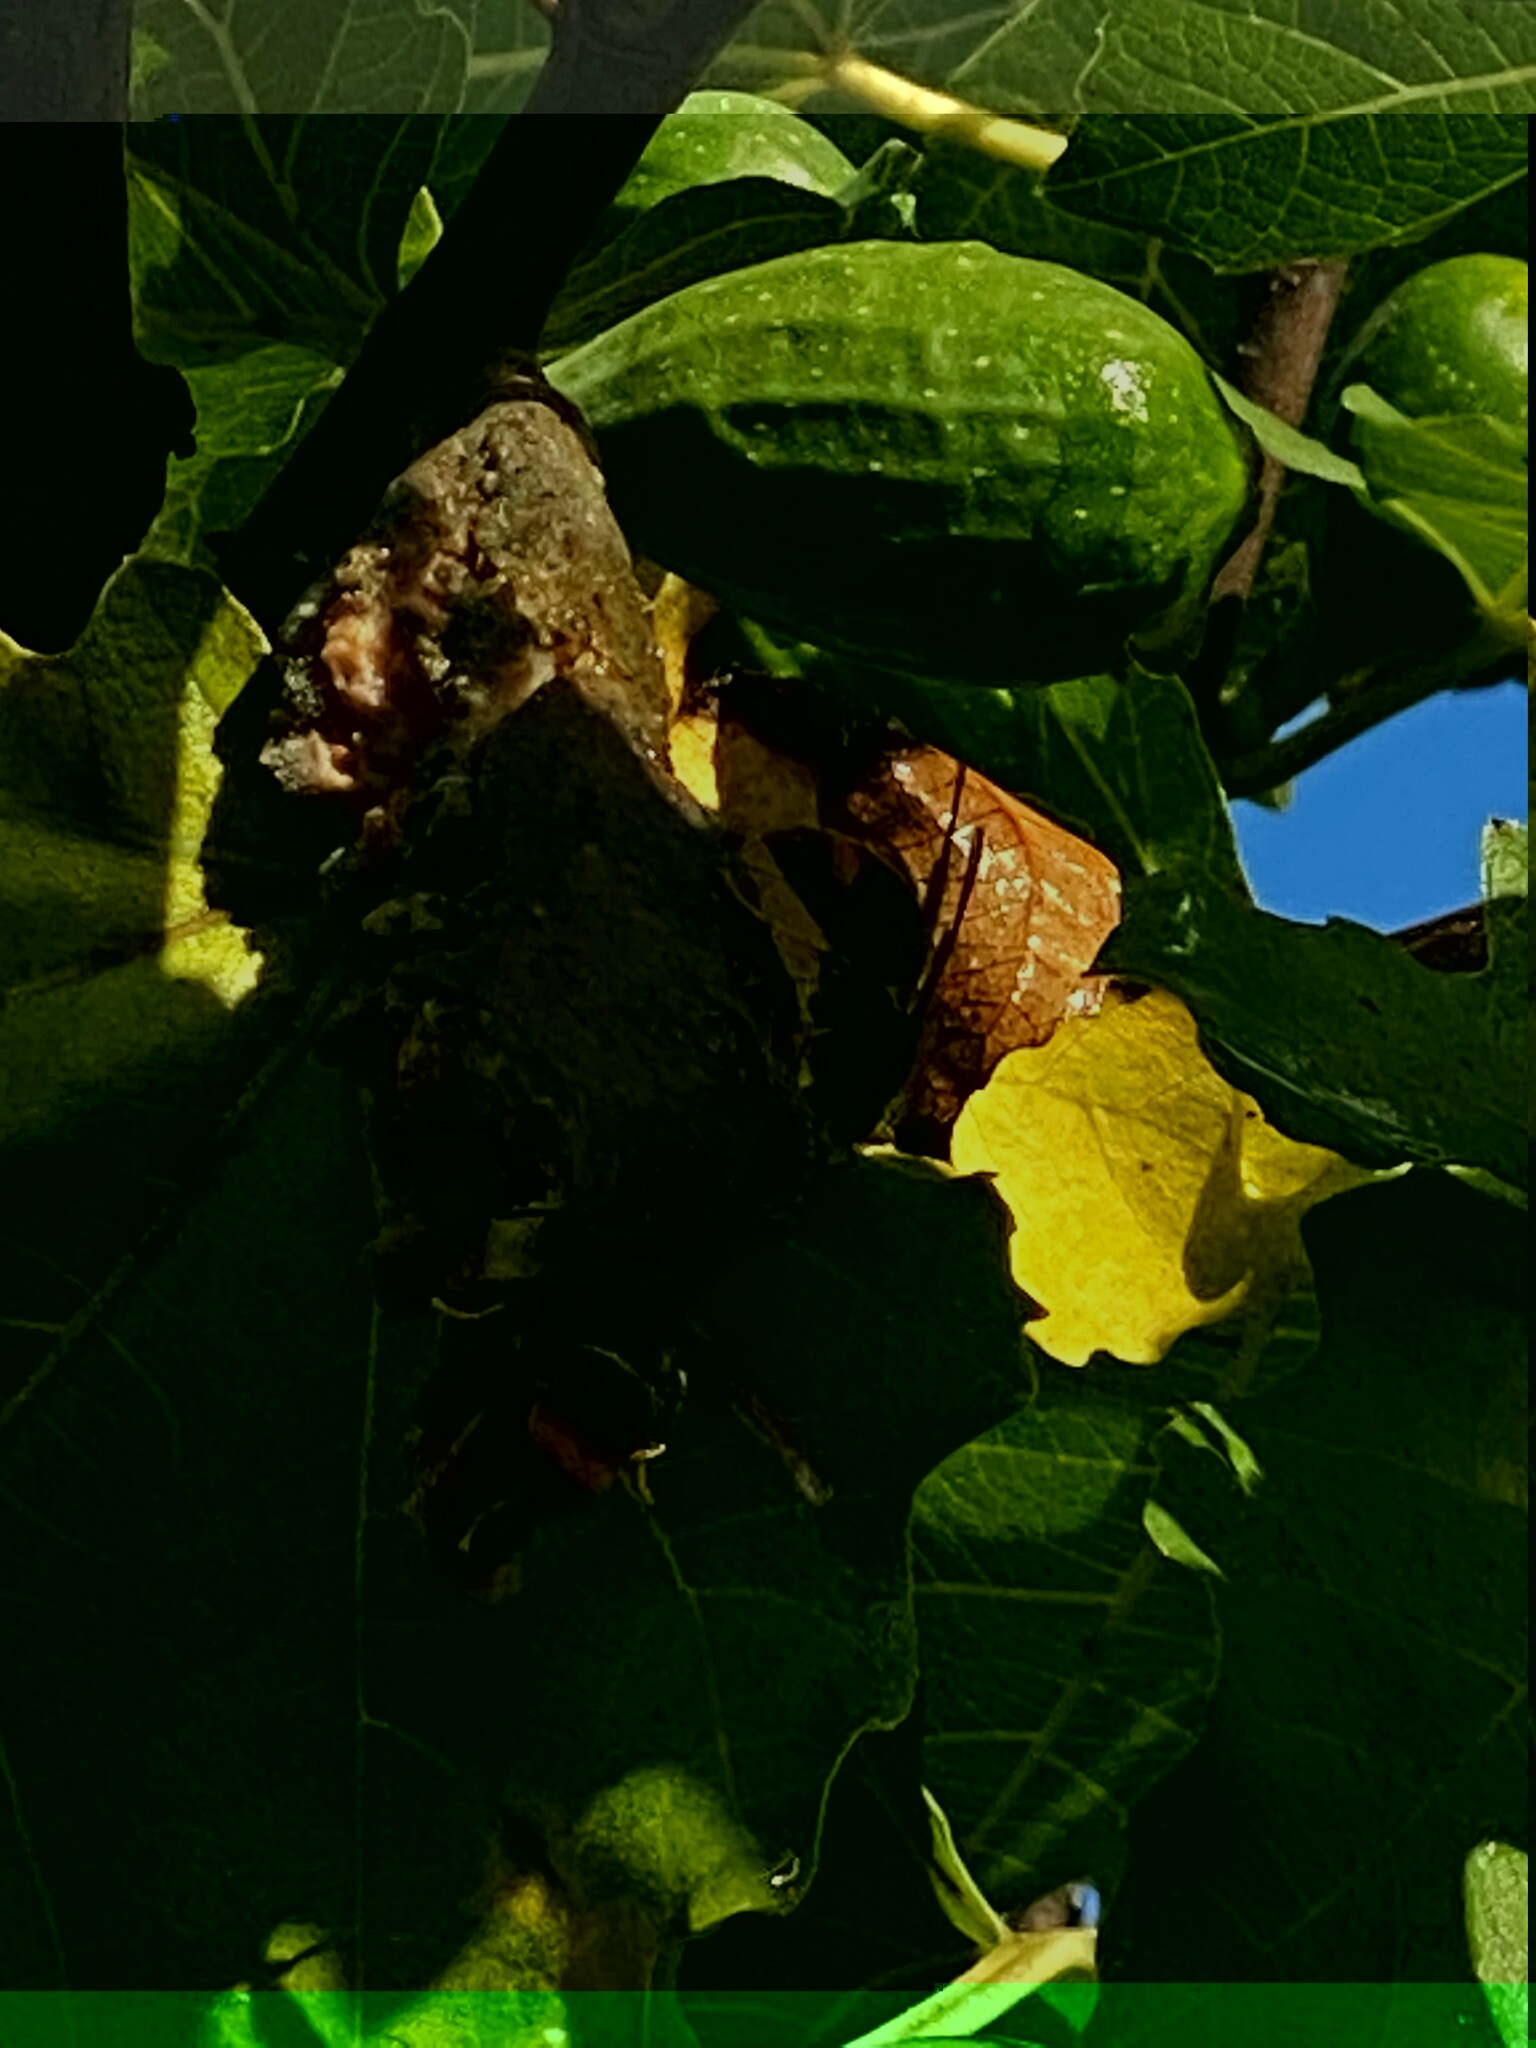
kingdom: Animalia
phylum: Arthropoda
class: Insecta
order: Hymenoptera
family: Vespidae
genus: Vespa
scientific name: Vespa velutina
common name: Asian hornet
